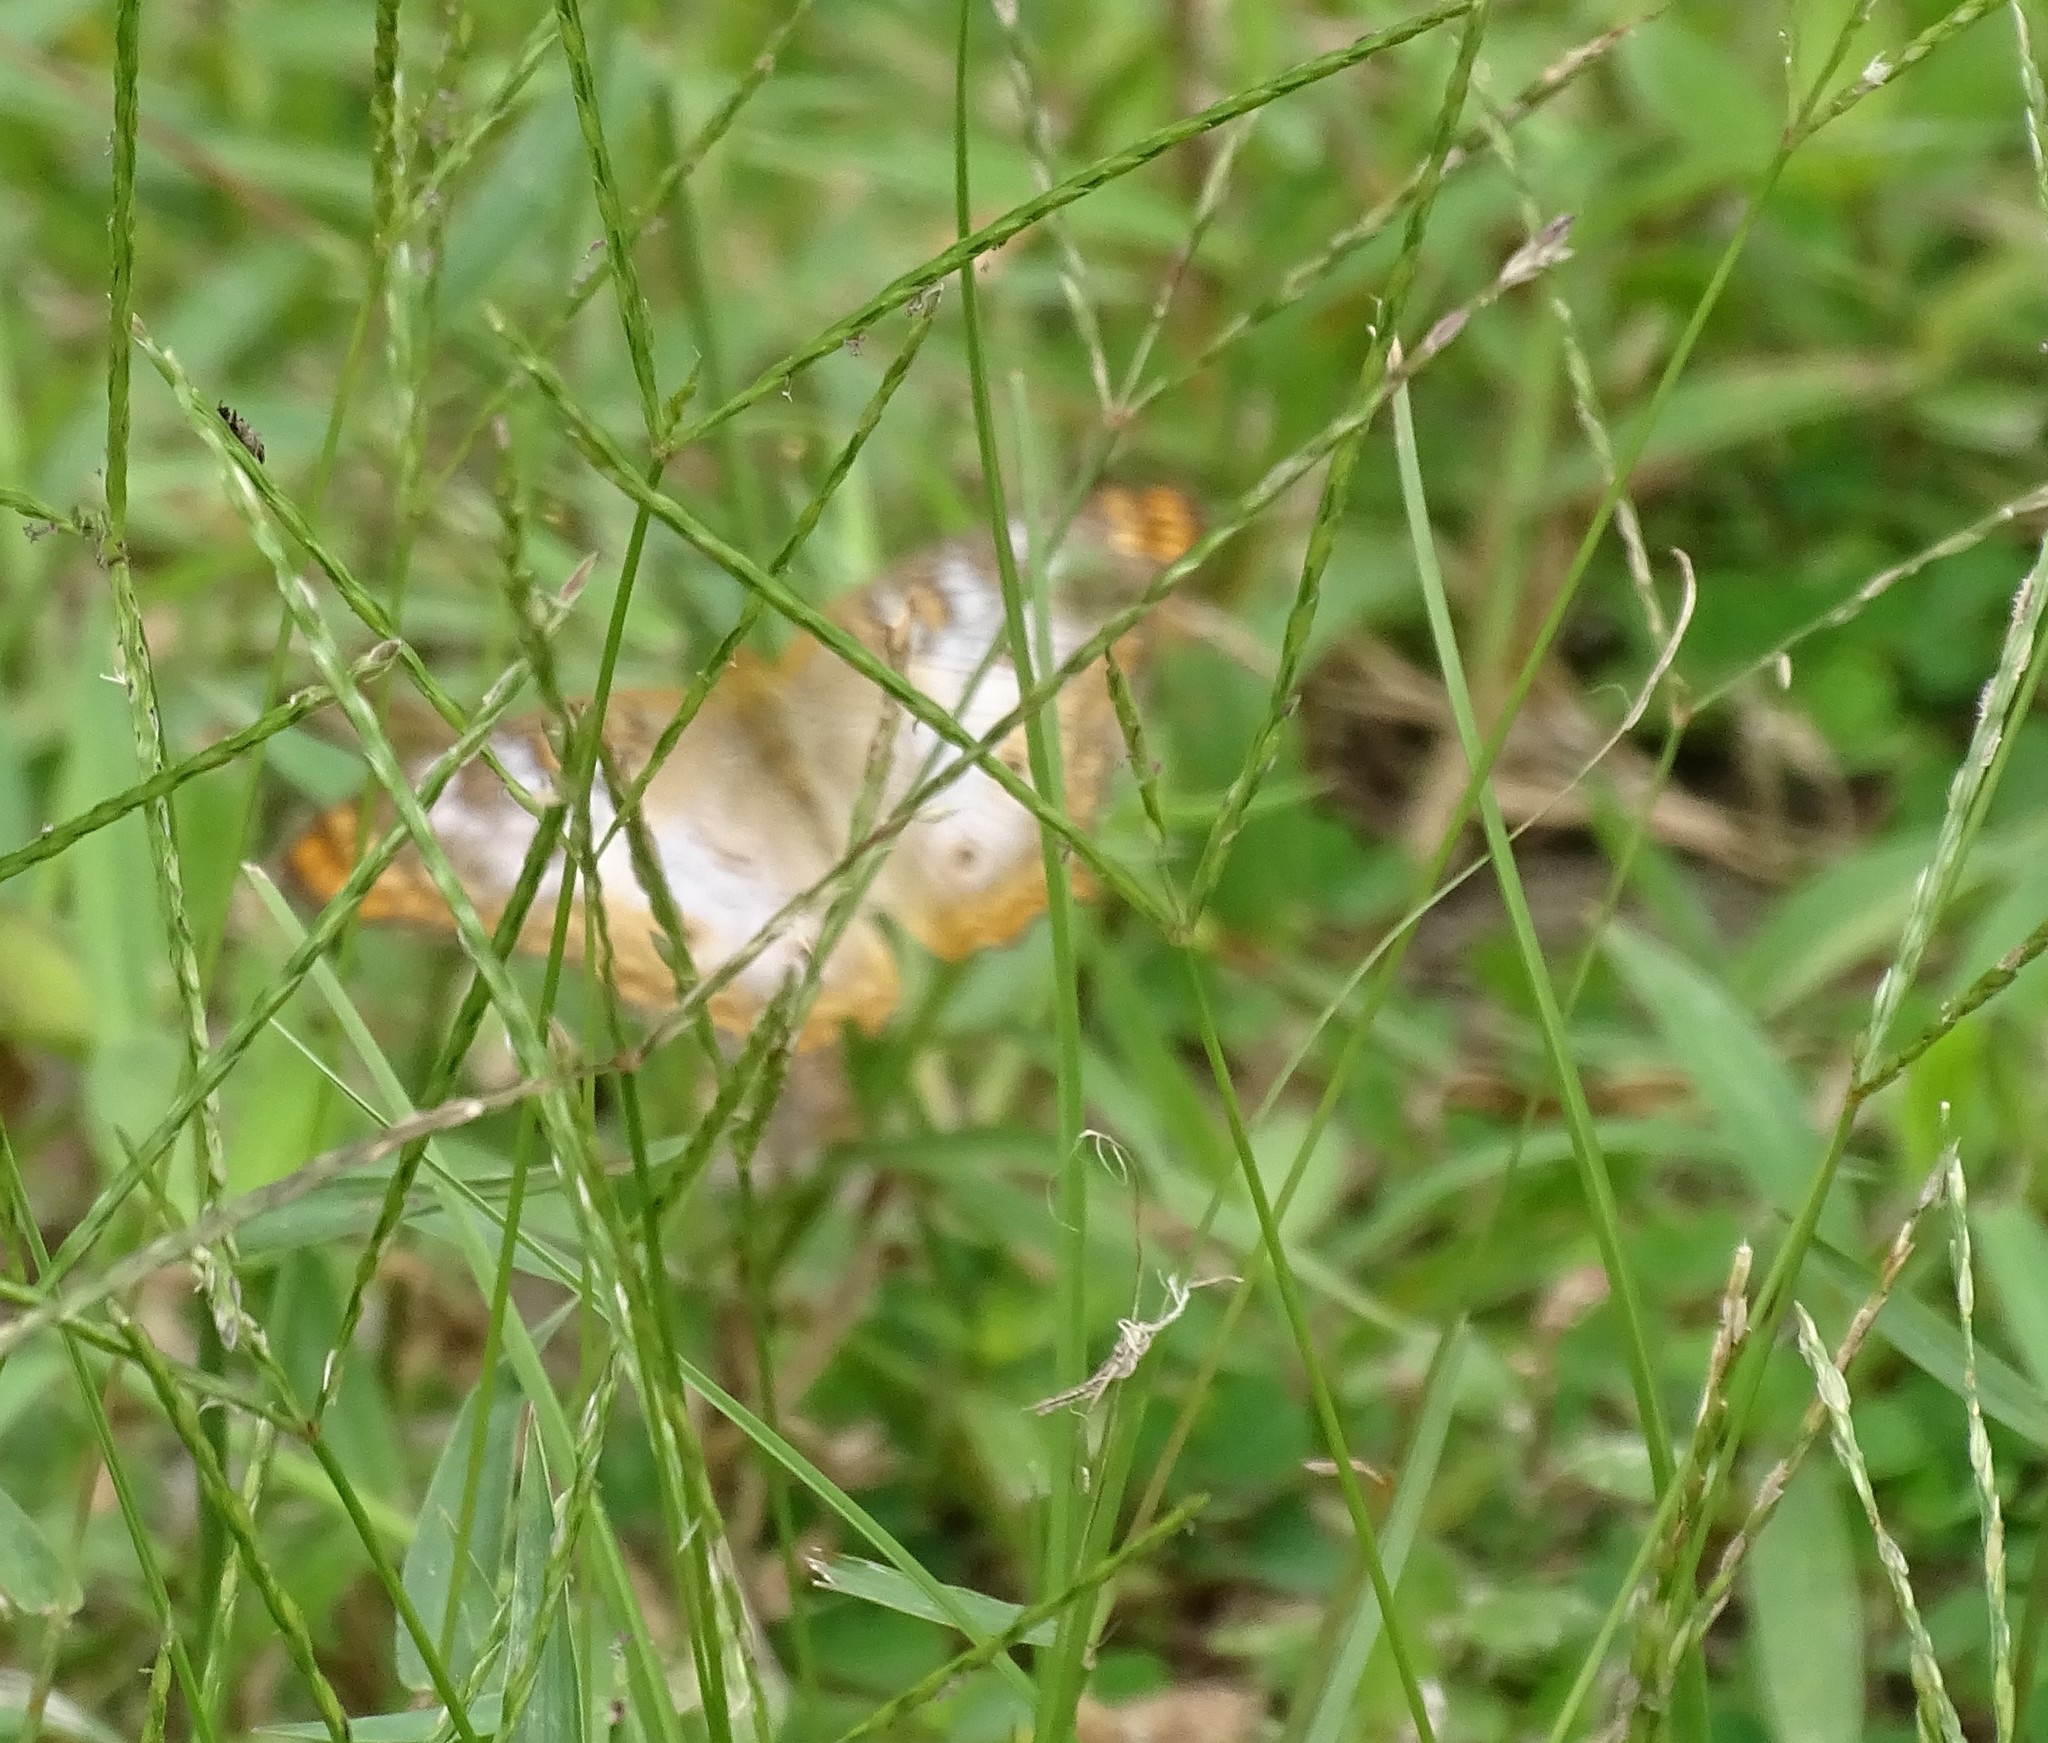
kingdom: Animalia
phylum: Arthropoda
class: Insecta
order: Lepidoptera
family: Nymphalidae
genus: Anartia
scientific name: Anartia jatrophae
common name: White peacock
